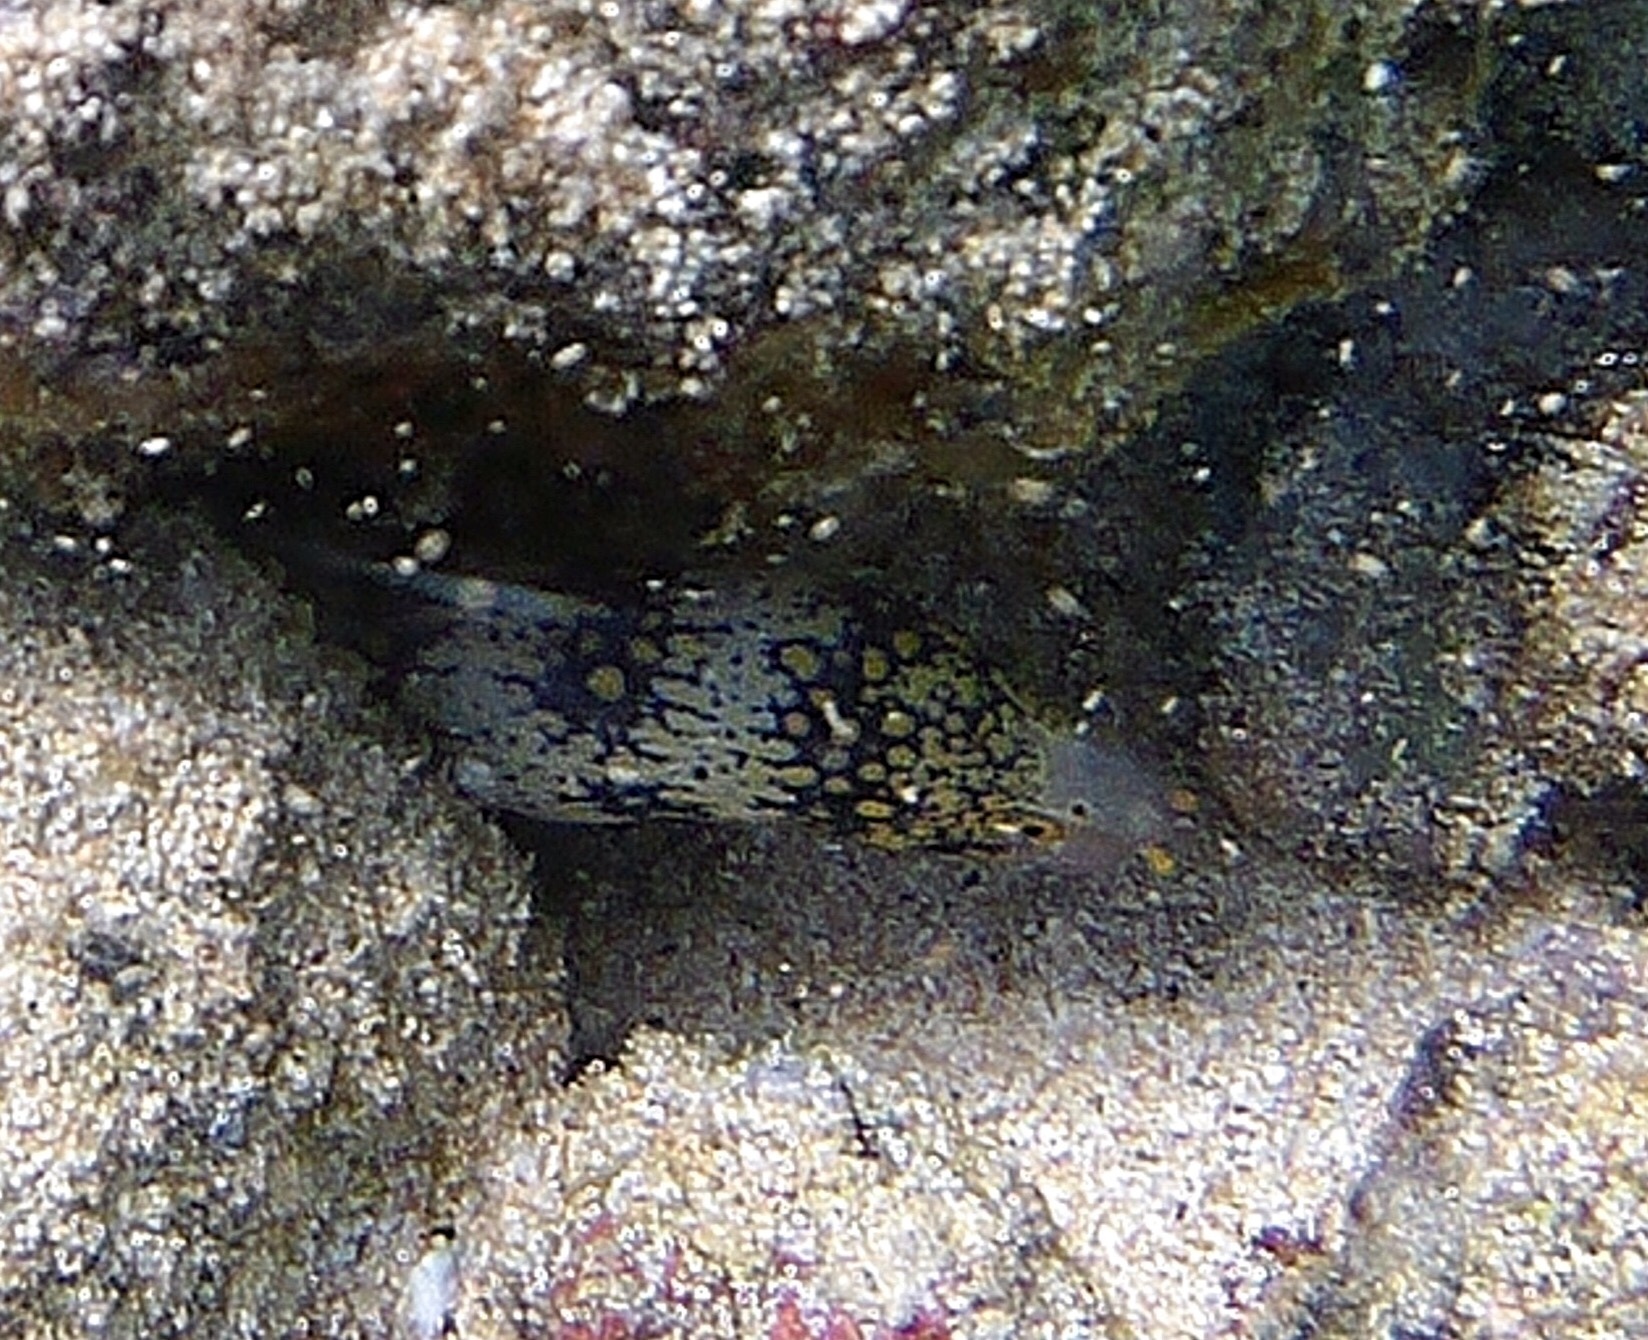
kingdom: Animalia
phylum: Chordata
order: Anguilliformes
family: Muraenidae
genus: Echidna
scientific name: Echidna nebulosa
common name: Snowflake moray
